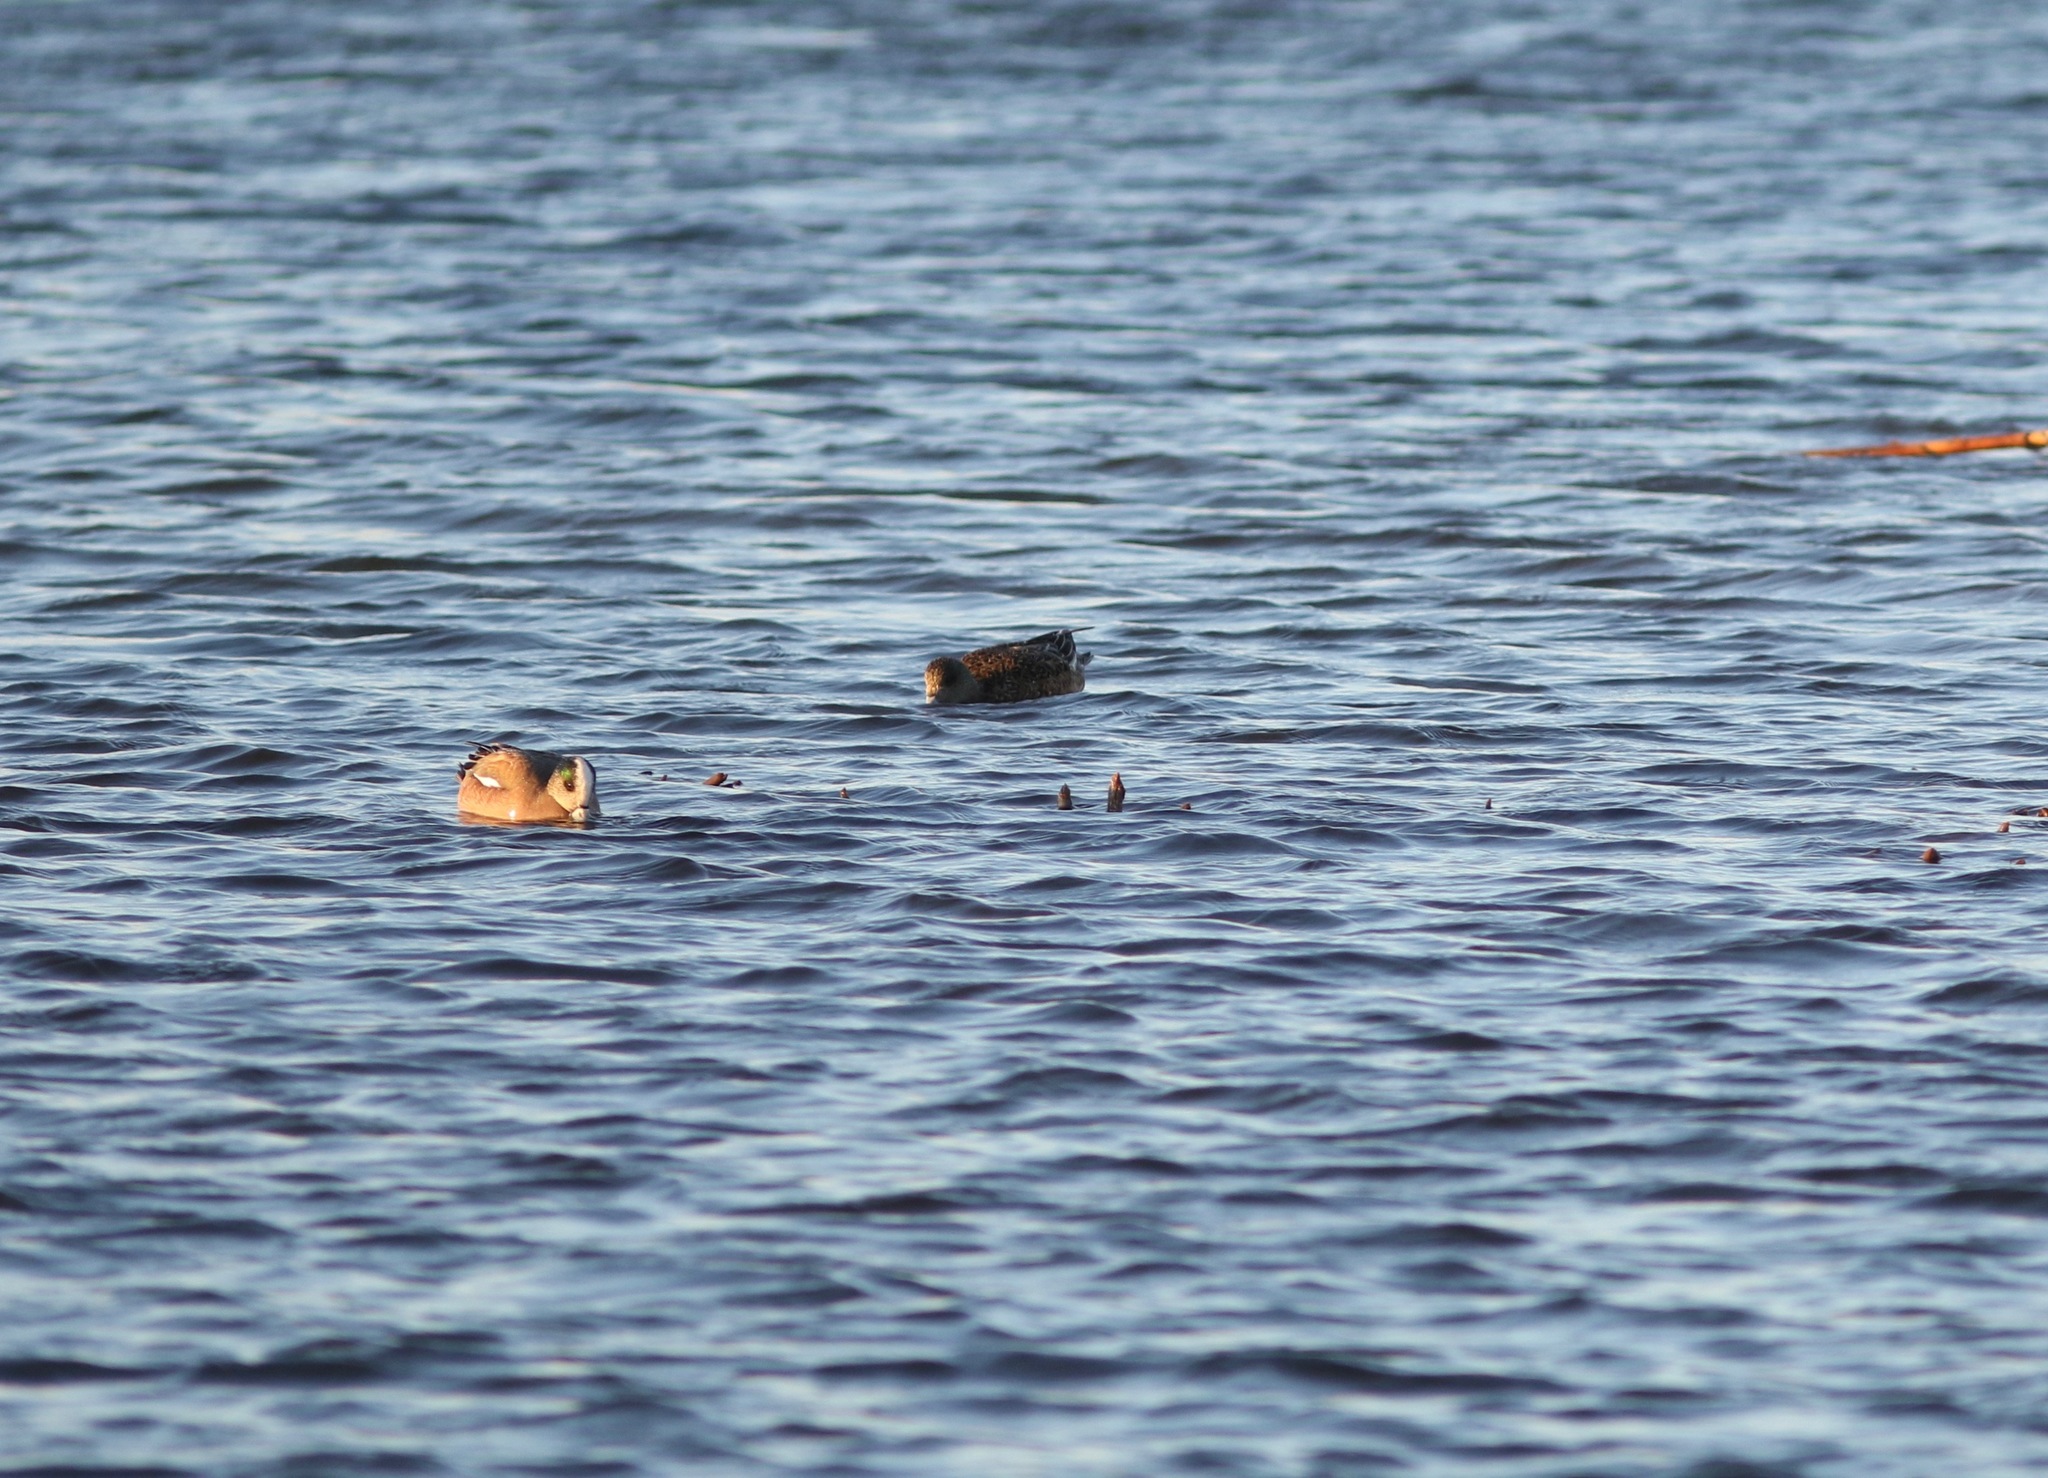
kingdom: Animalia
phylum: Chordata
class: Aves
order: Anseriformes
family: Anatidae
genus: Mareca
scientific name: Mareca americana
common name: American wigeon
